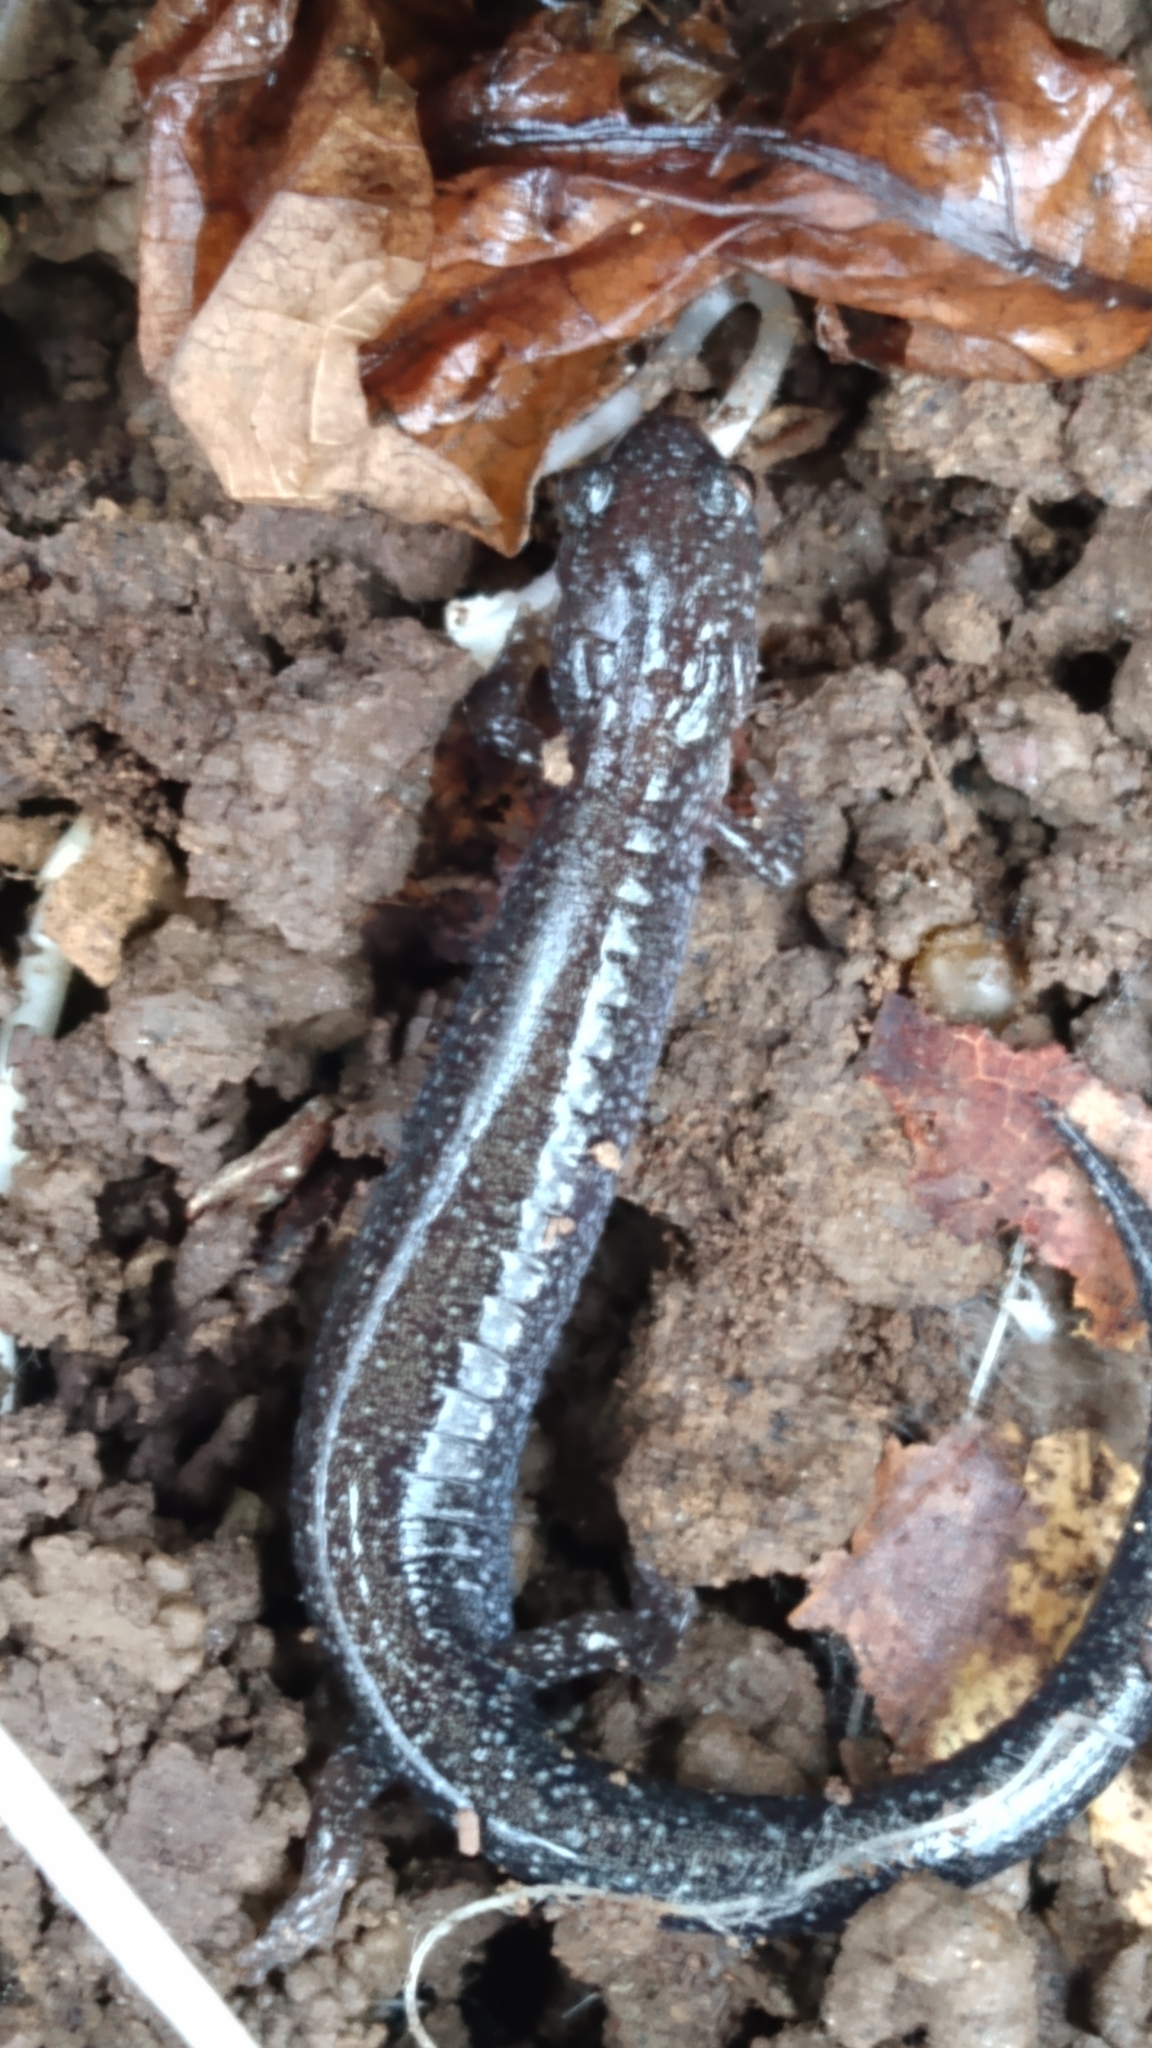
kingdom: Animalia
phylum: Chordata
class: Amphibia
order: Caudata
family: Plethodontidae
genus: Plethodon
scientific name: Plethodon cinereus
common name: Redback salamander
